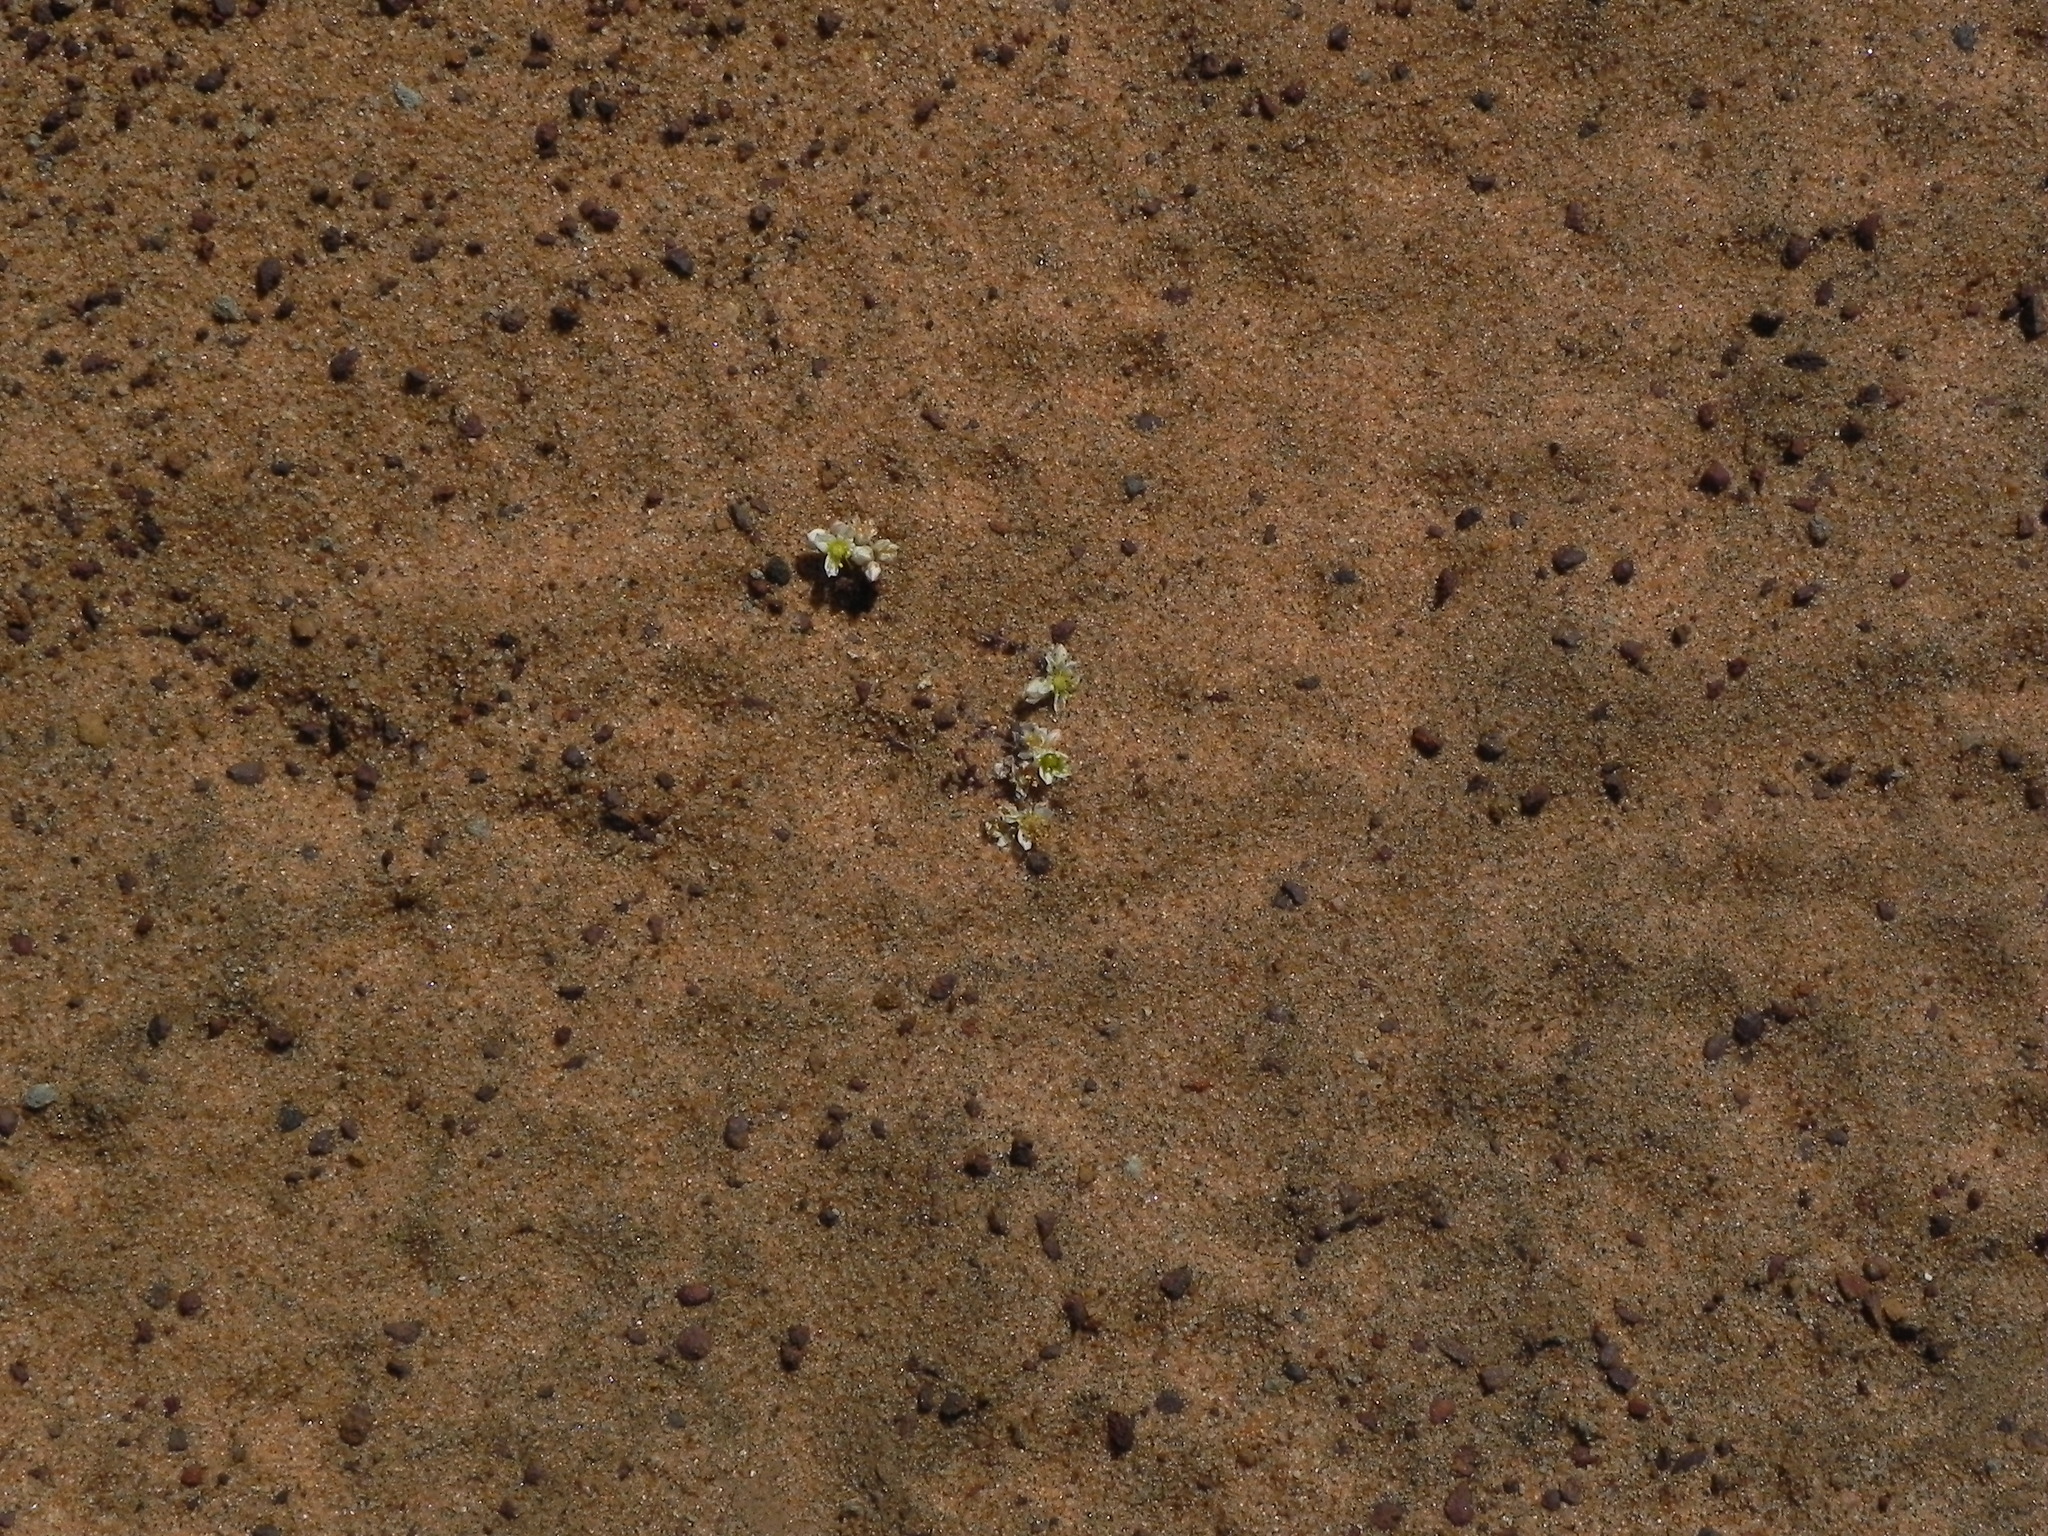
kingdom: Plantae
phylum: Tracheophyta
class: Magnoliopsida
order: Saxifragales
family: Crassulaceae
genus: Dudleya
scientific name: Dudleya blochmaniae
